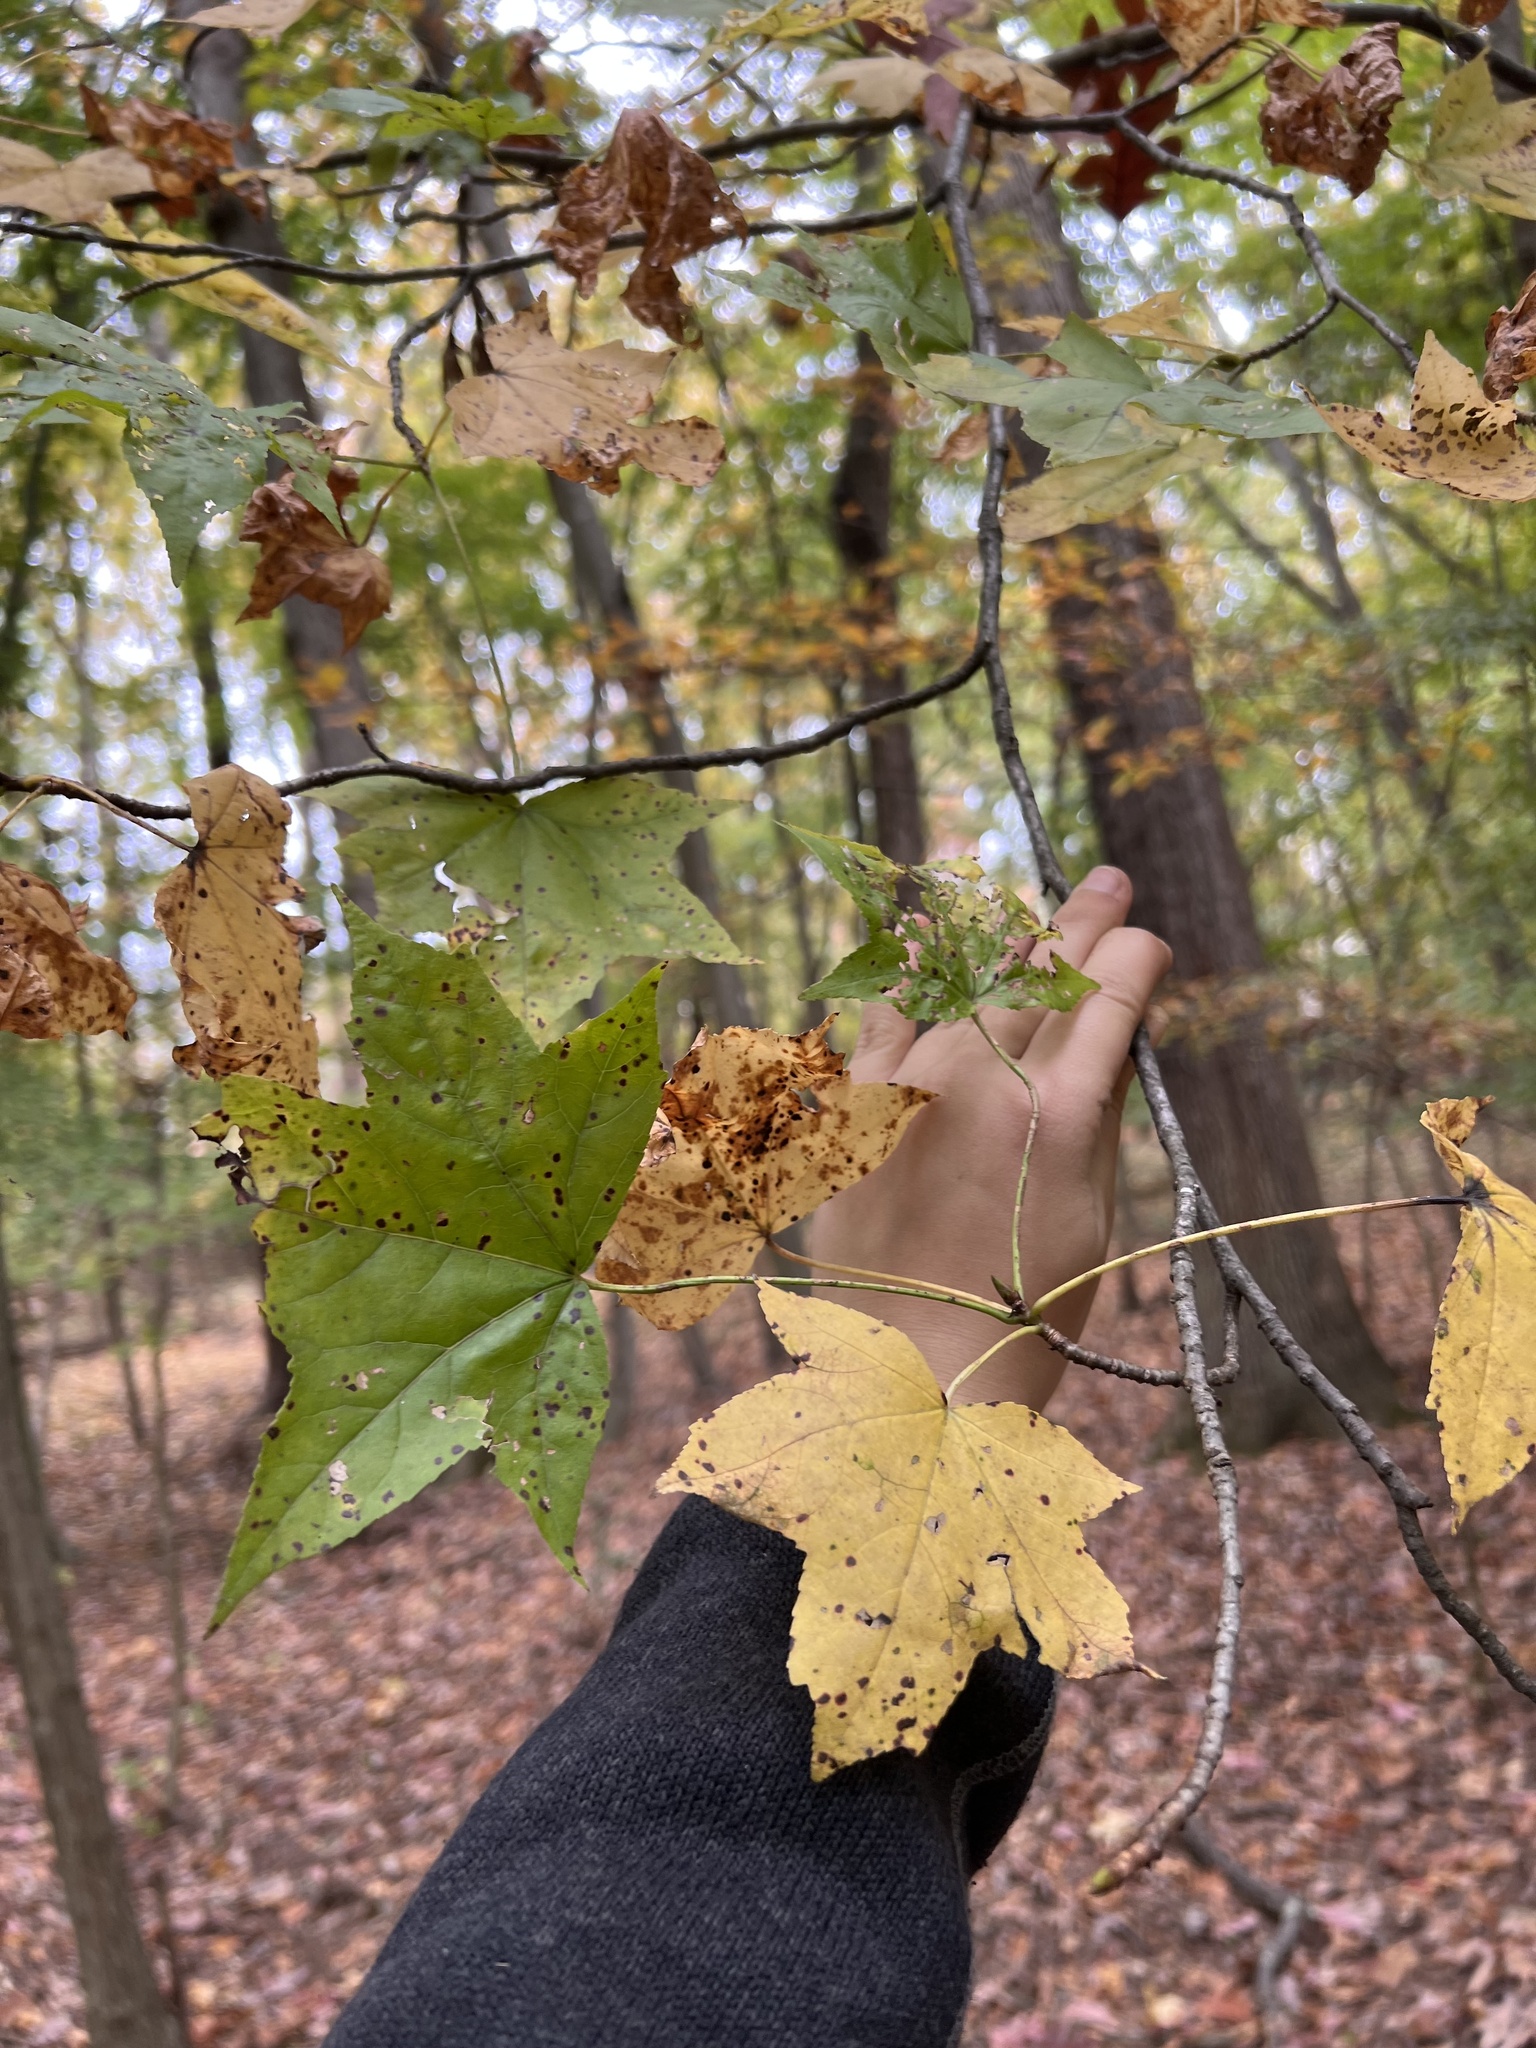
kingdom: Plantae
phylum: Tracheophyta
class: Magnoliopsida
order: Saxifragales
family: Altingiaceae
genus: Liquidambar
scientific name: Liquidambar styraciflua
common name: Sweet gum
